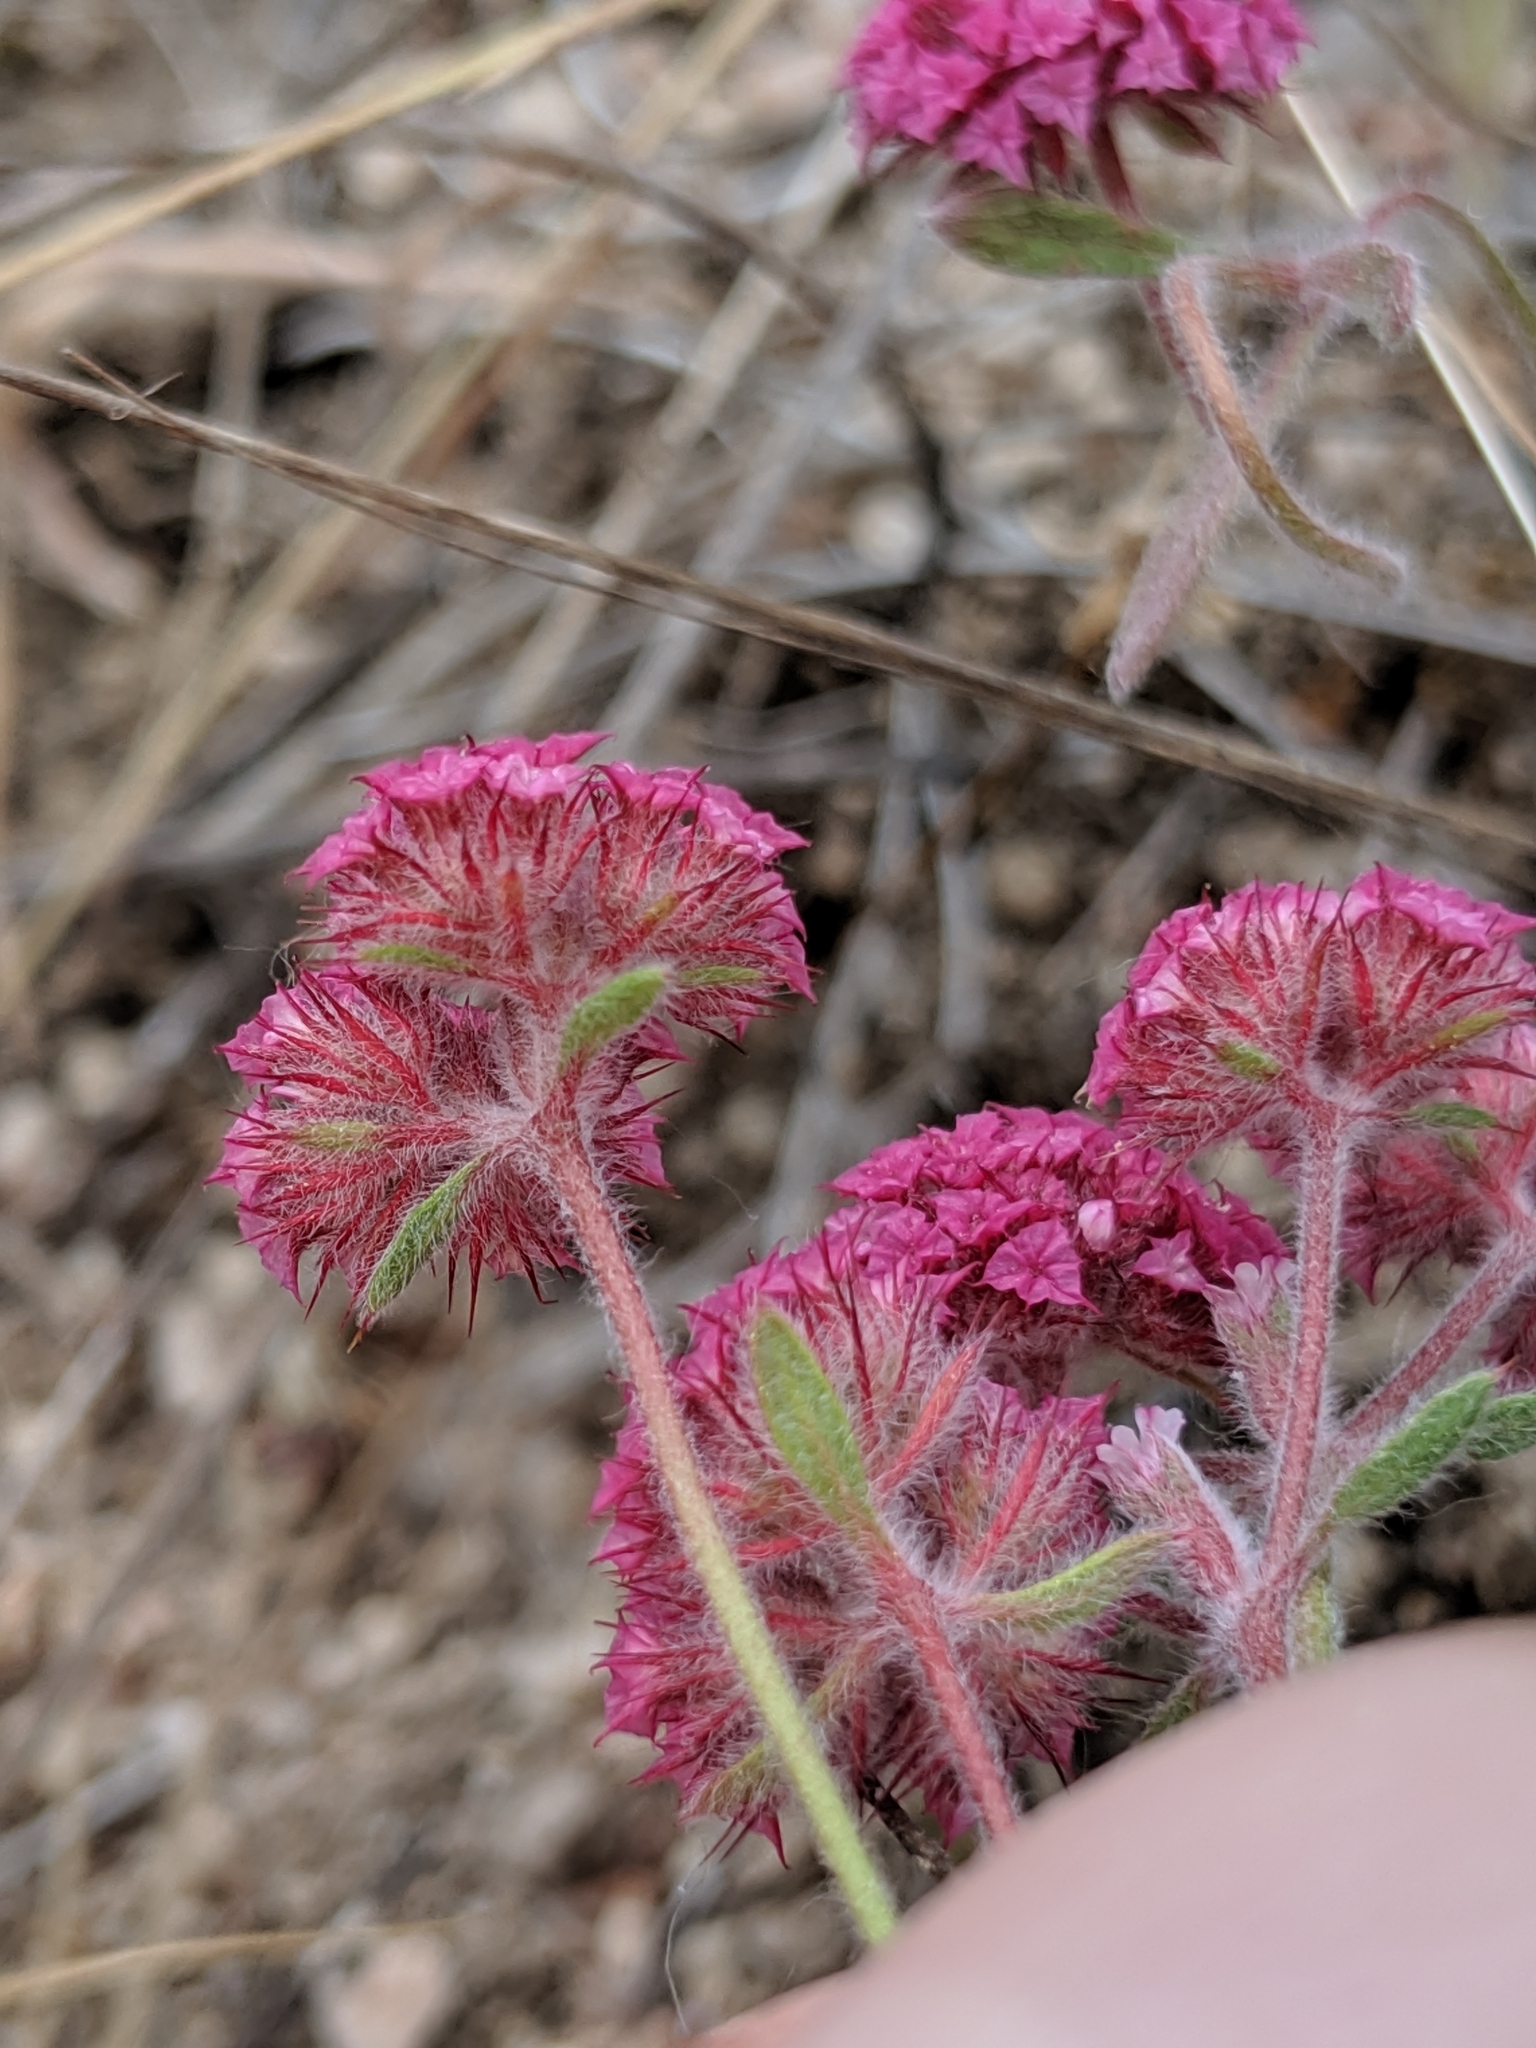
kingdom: Plantae
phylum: Tracheophyta
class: Magnoliopsida
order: Caryophyllales
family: Polygonaceae
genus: Chorizanthe
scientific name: Chorizanthe douglasii
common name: Douglas's spineflower
